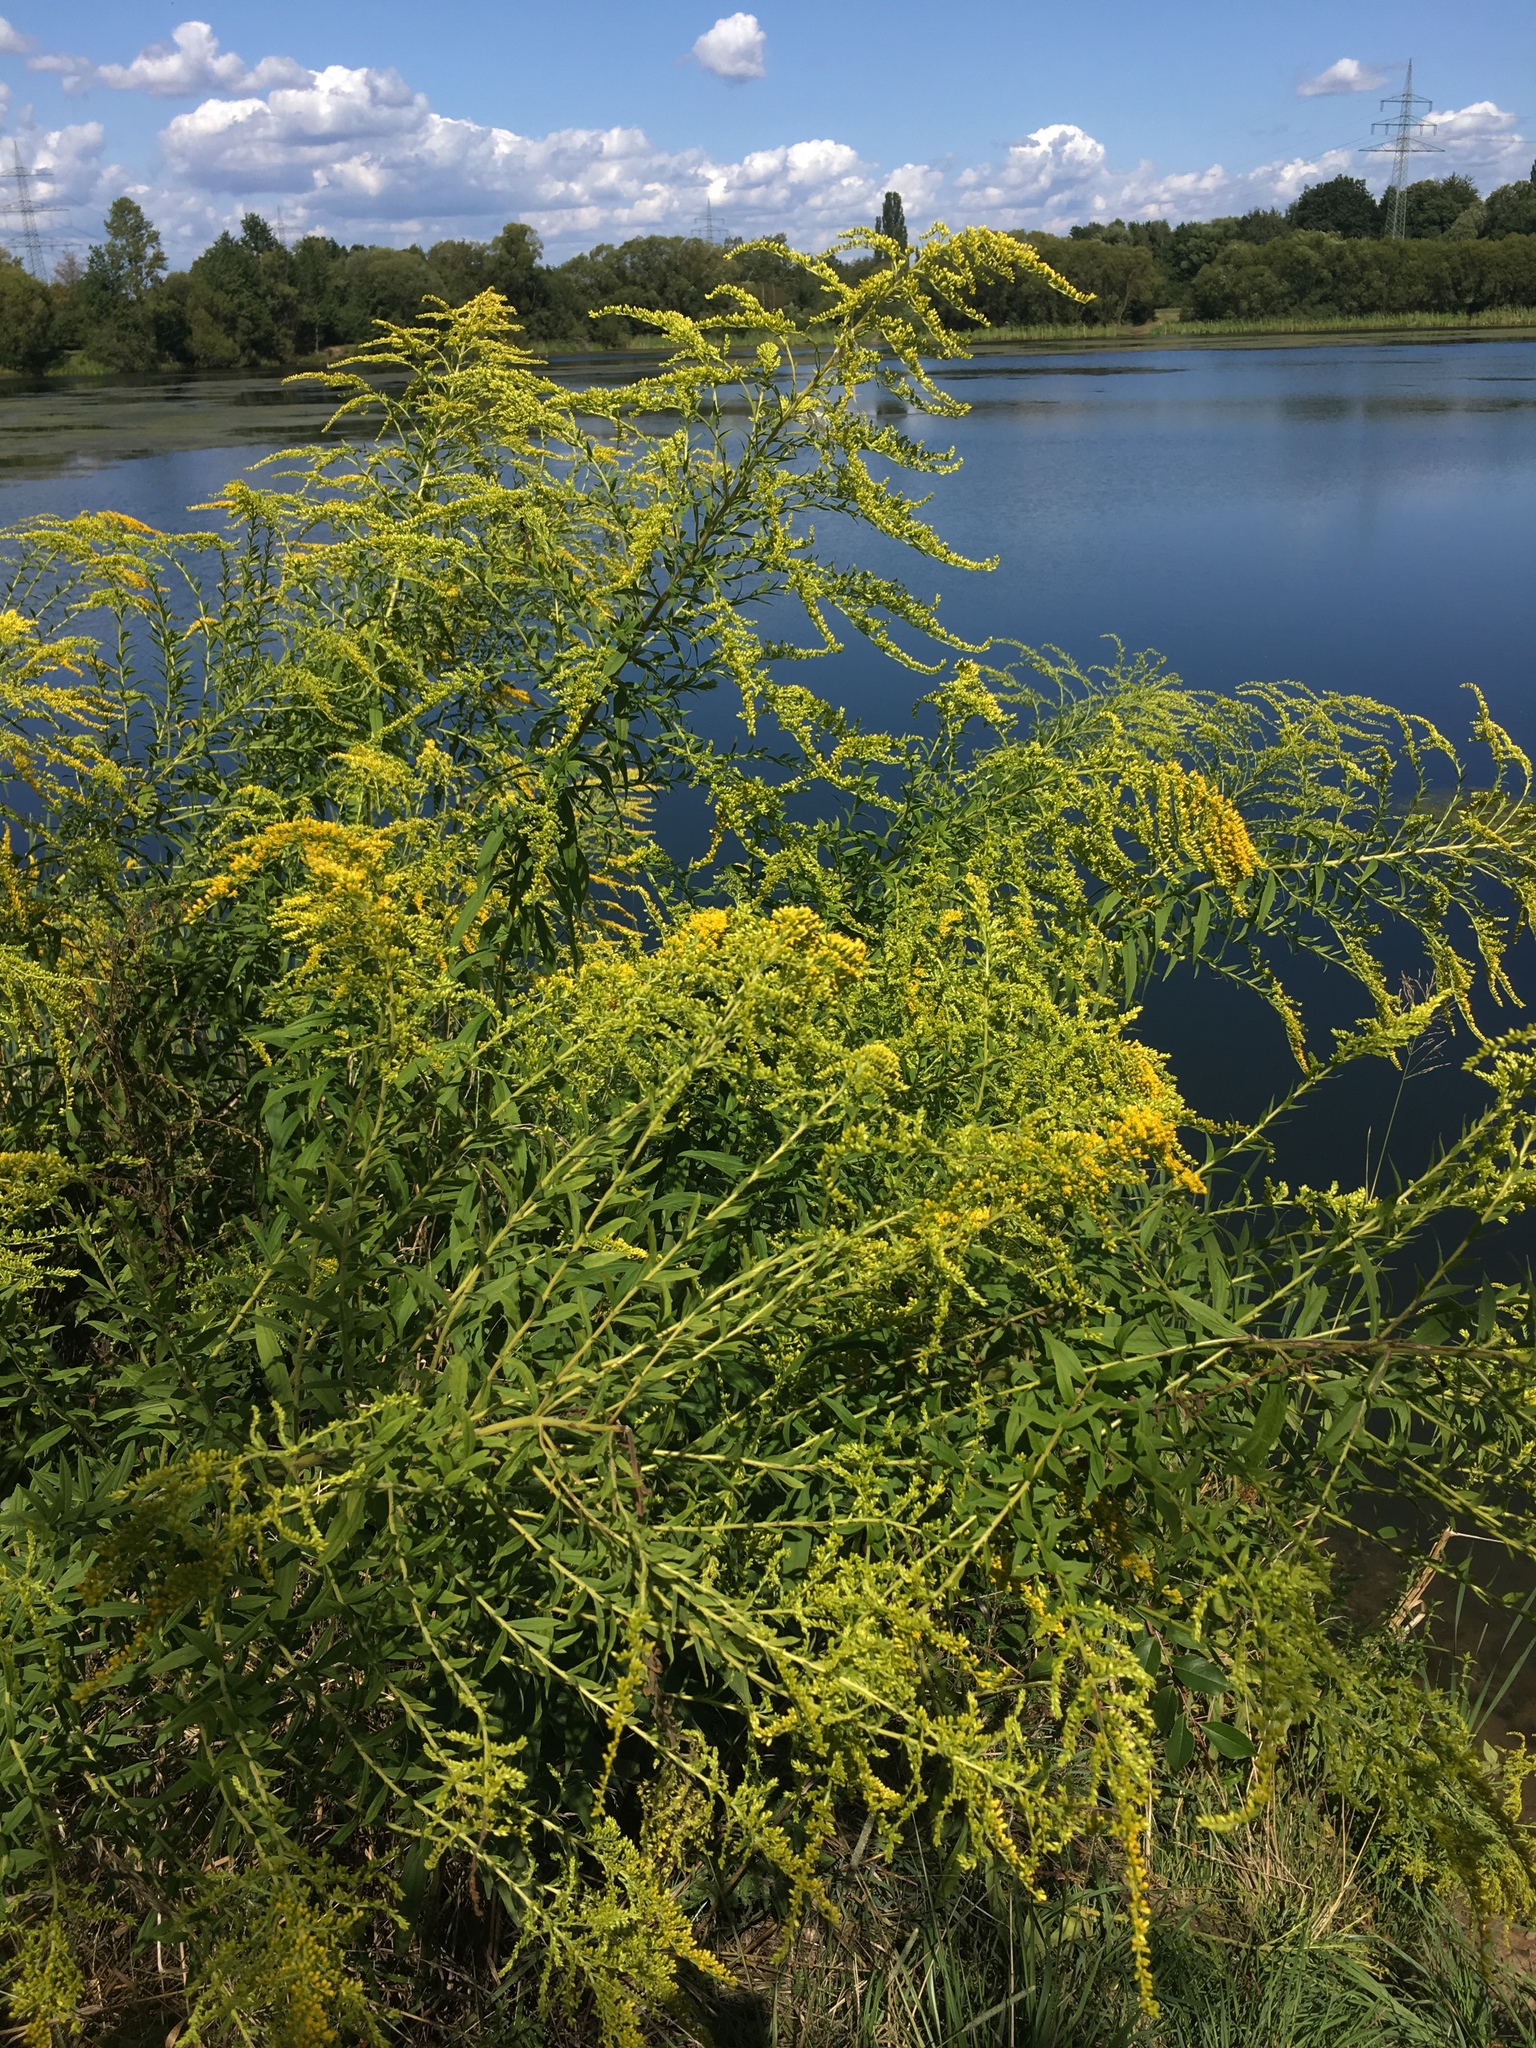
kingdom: Plantae
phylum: Tracheophyta
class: Magnoliopsida
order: Asterales
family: Asteraceae
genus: Solidago
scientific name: Solidago canadensis
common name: Canada goldenrod
